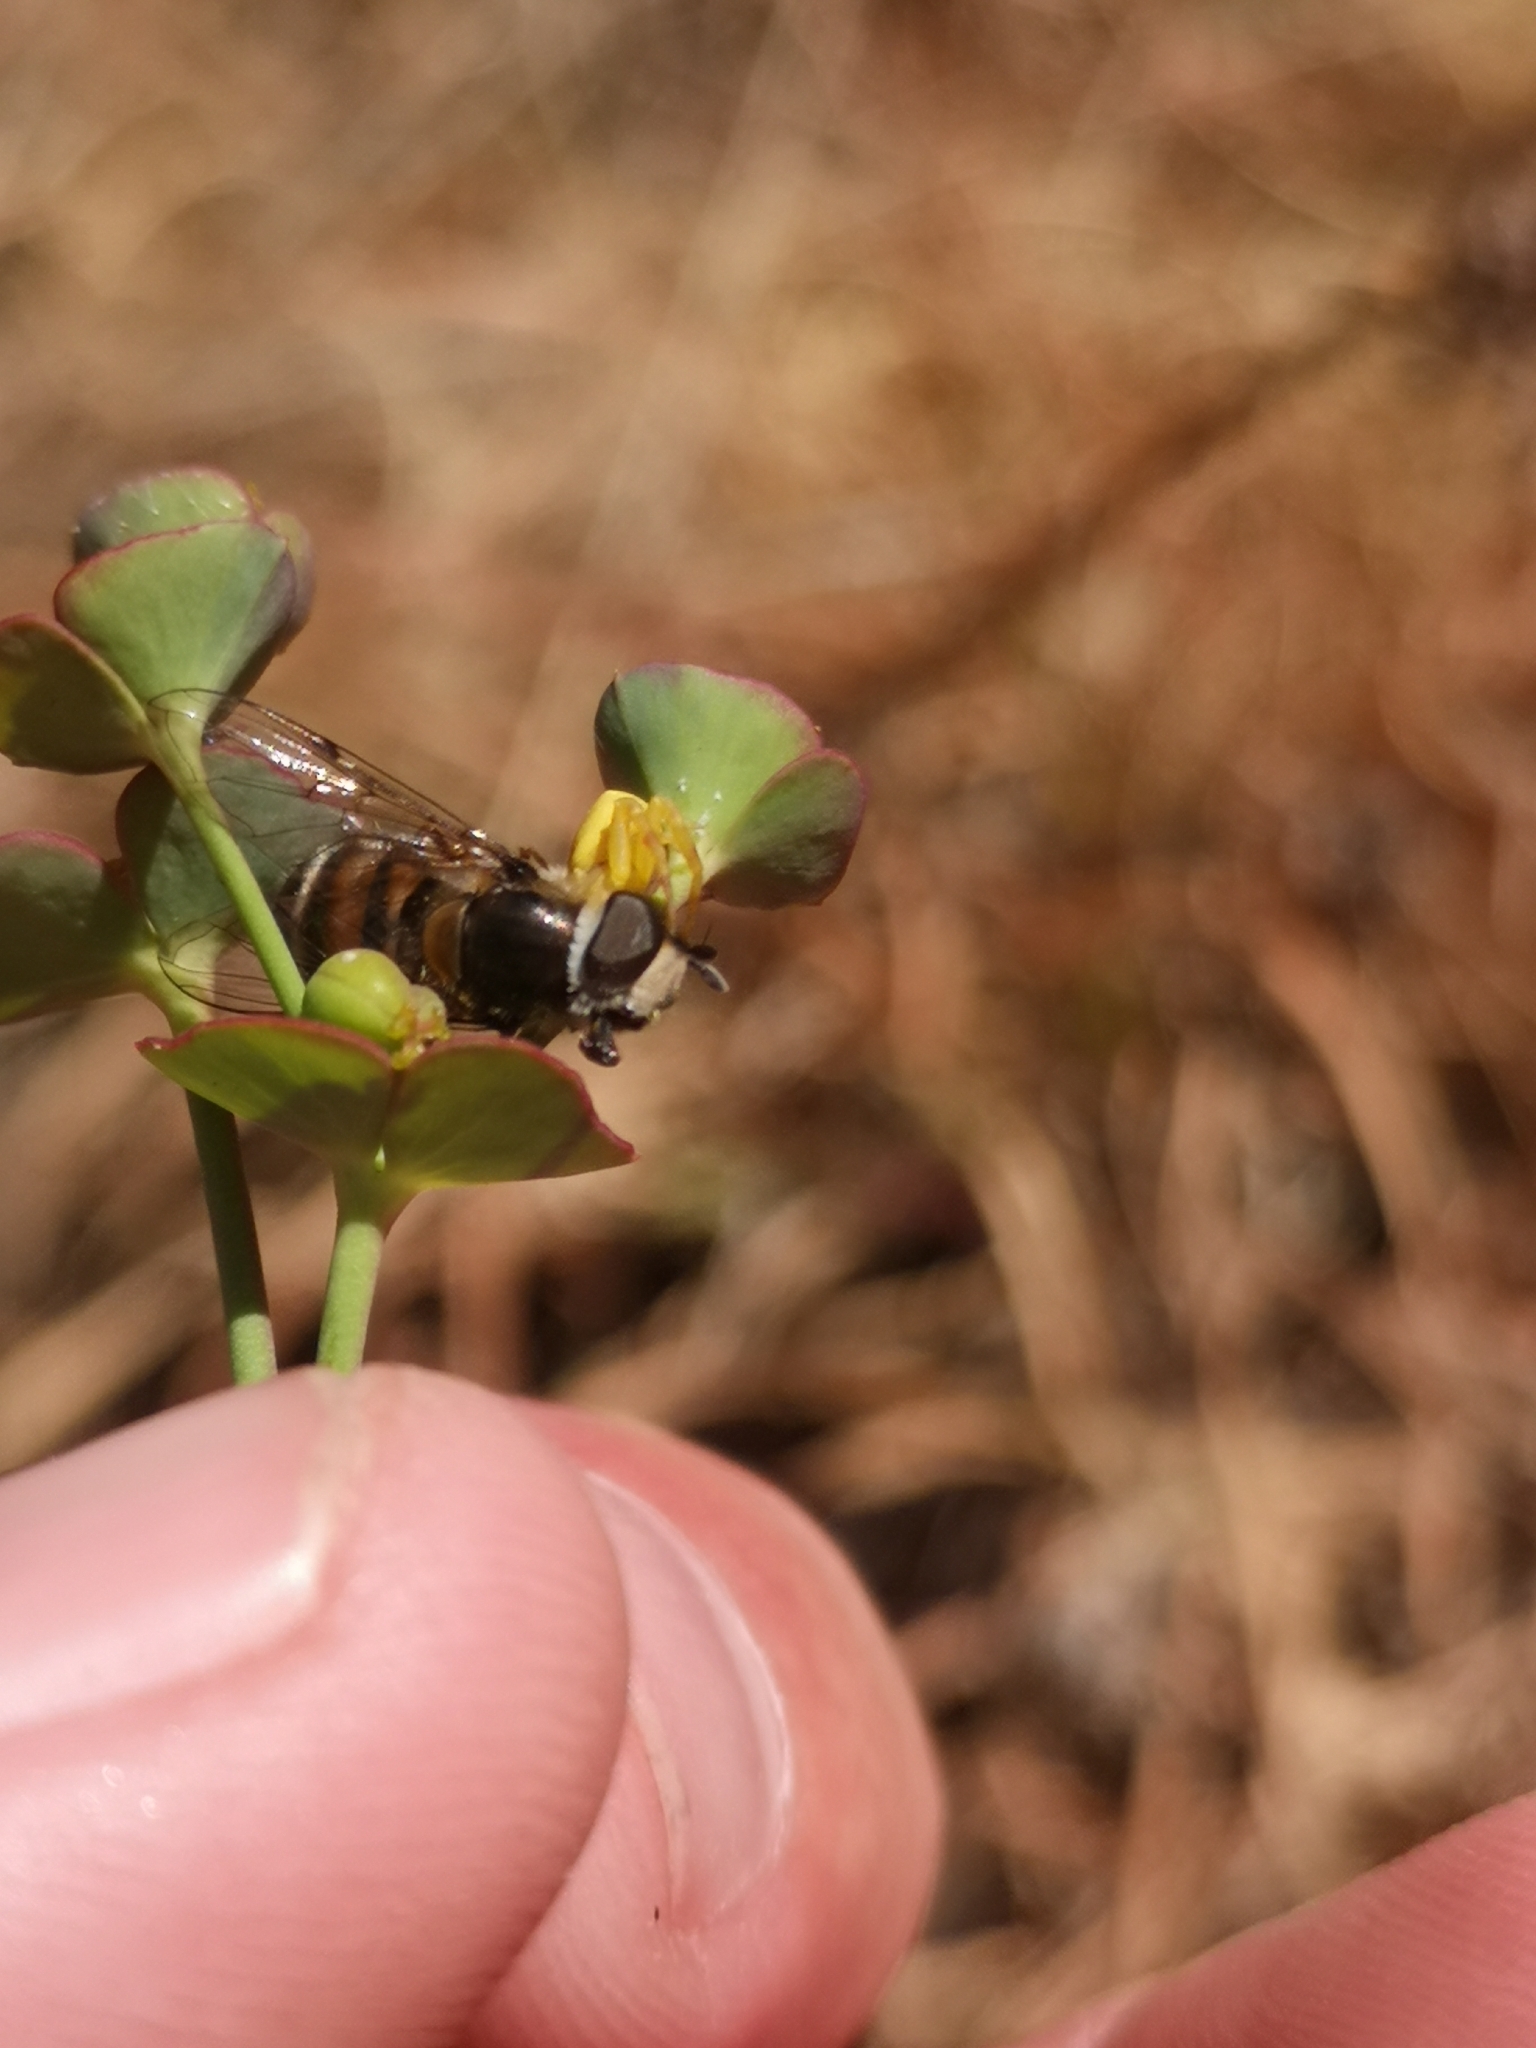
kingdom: Plantae
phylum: Tracheophyta
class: Magnoliopsida
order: Malpighiales
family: Euphorbiaceae
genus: Euphorbia
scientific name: Euphorbia striata
